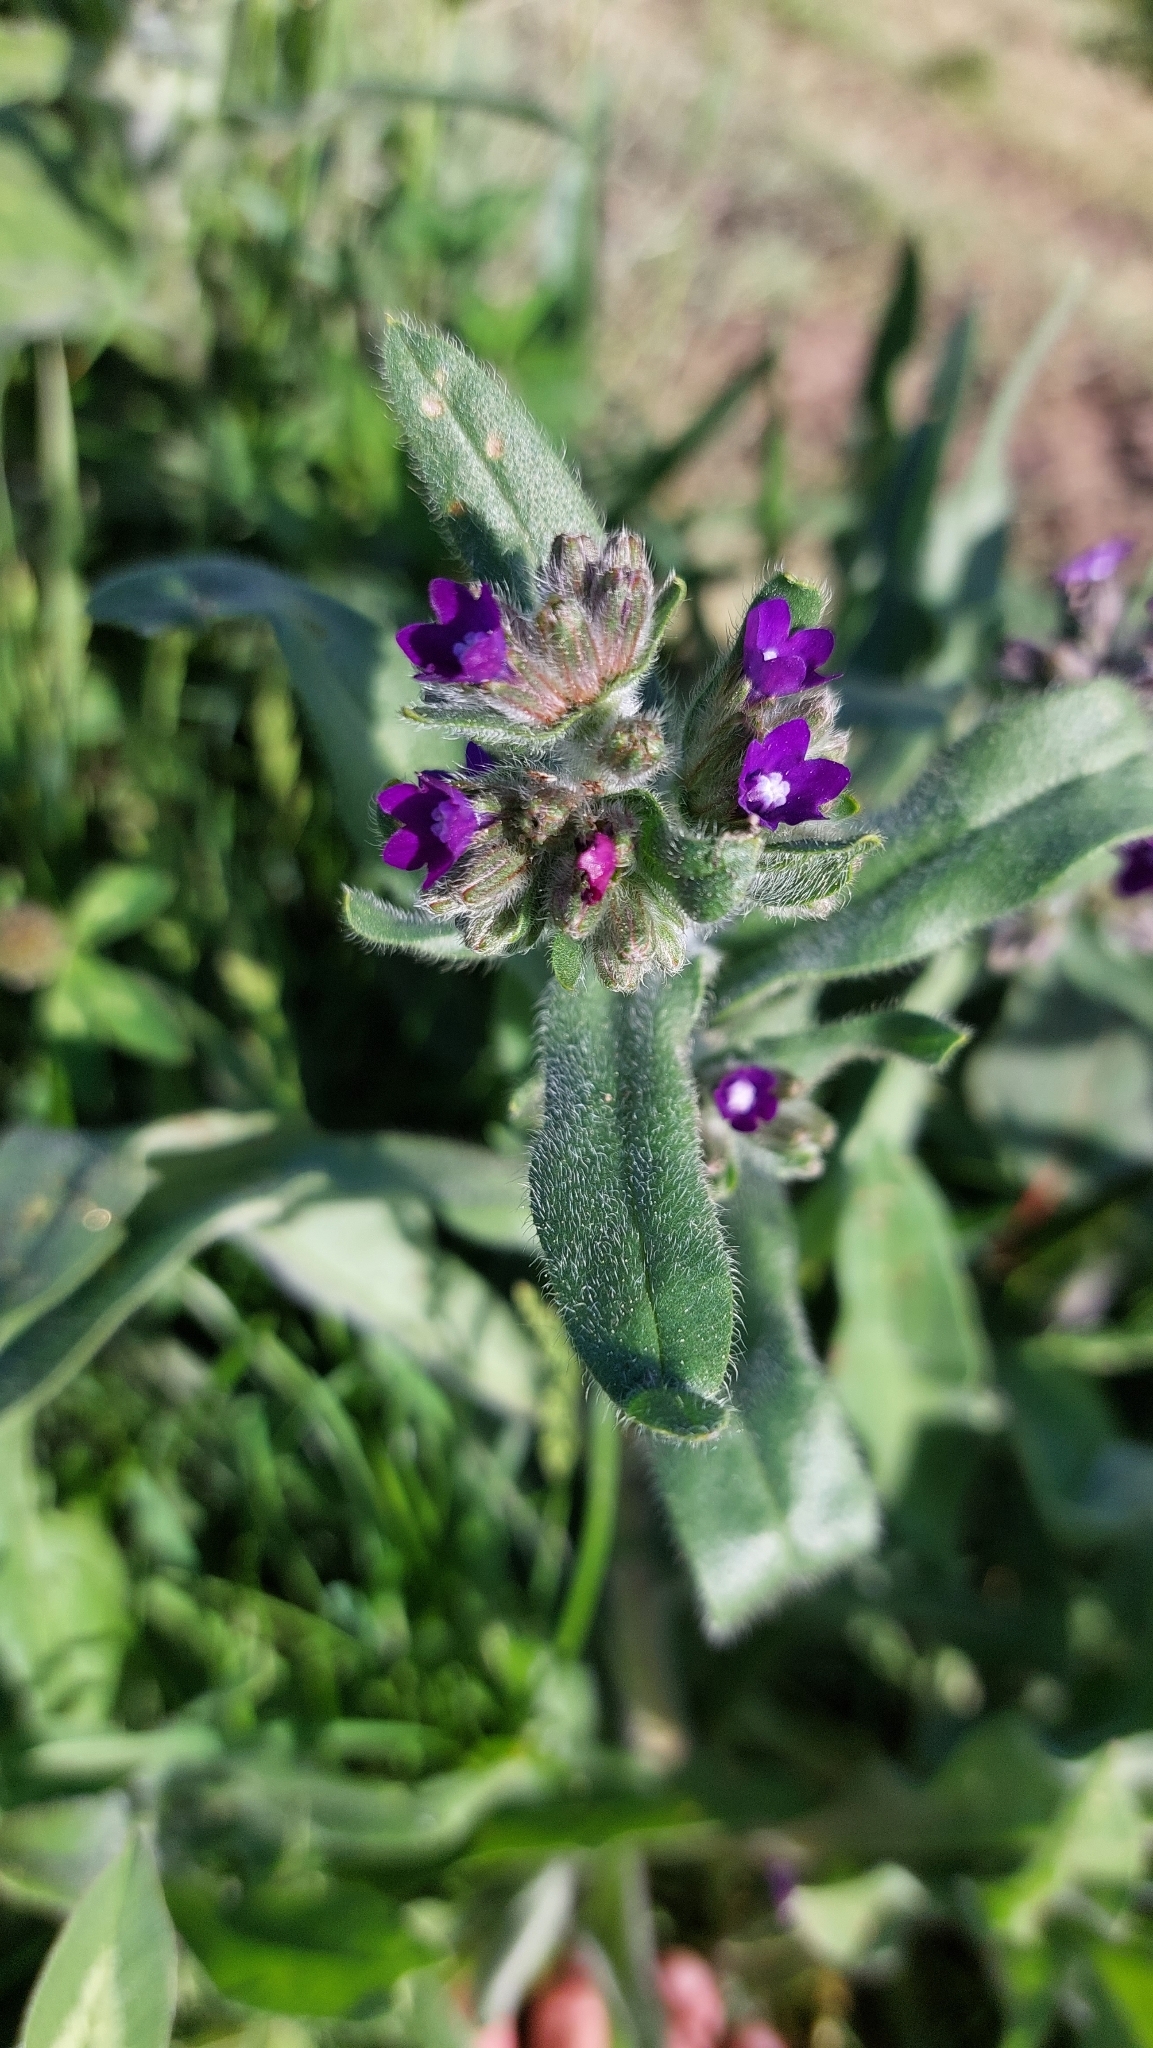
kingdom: Plantae
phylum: Tracheophyta
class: Magnoliopsida
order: Boraginales
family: Boraginaceae
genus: Anchusa
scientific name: Anchusa officinalis
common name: Alkanet
